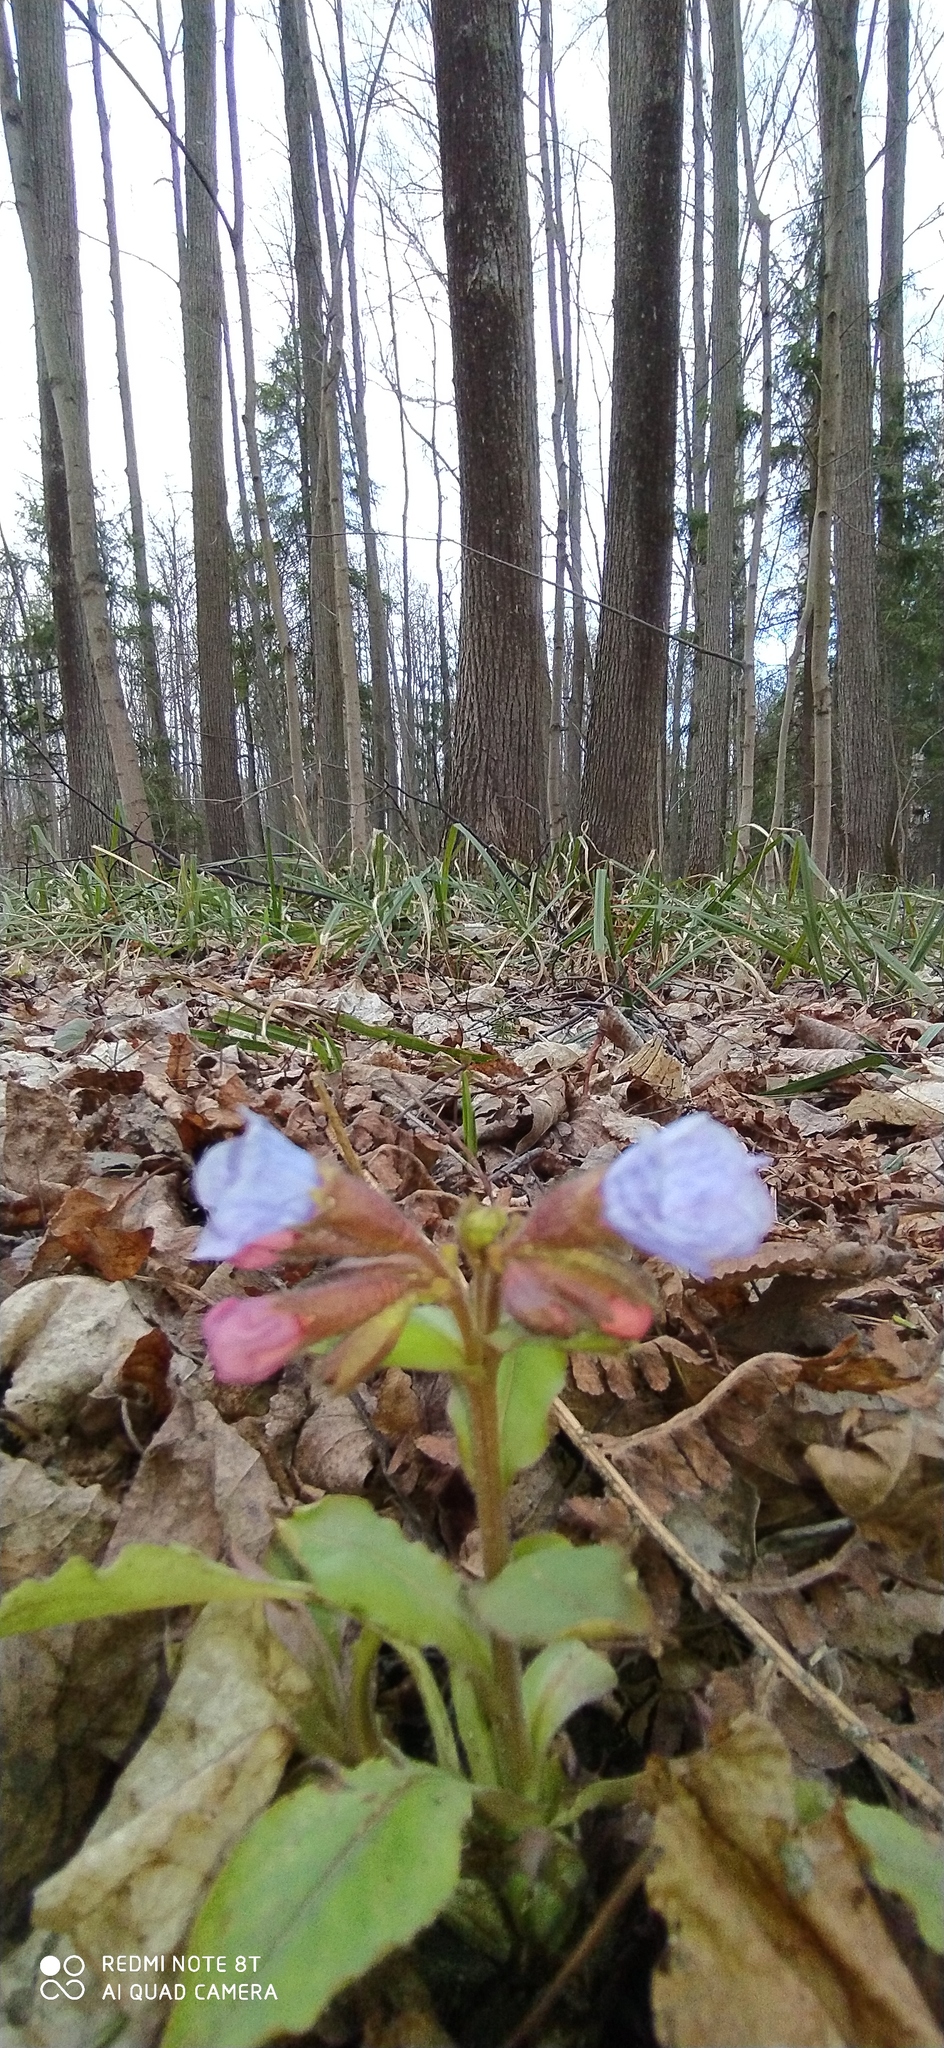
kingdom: Plantae
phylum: Tracheophyta
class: Magnoliopsida
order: Boraginales
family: Boraginaceae
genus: Pulmonaria
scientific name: Pulmonaria obscura
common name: Suffolk lungwort
